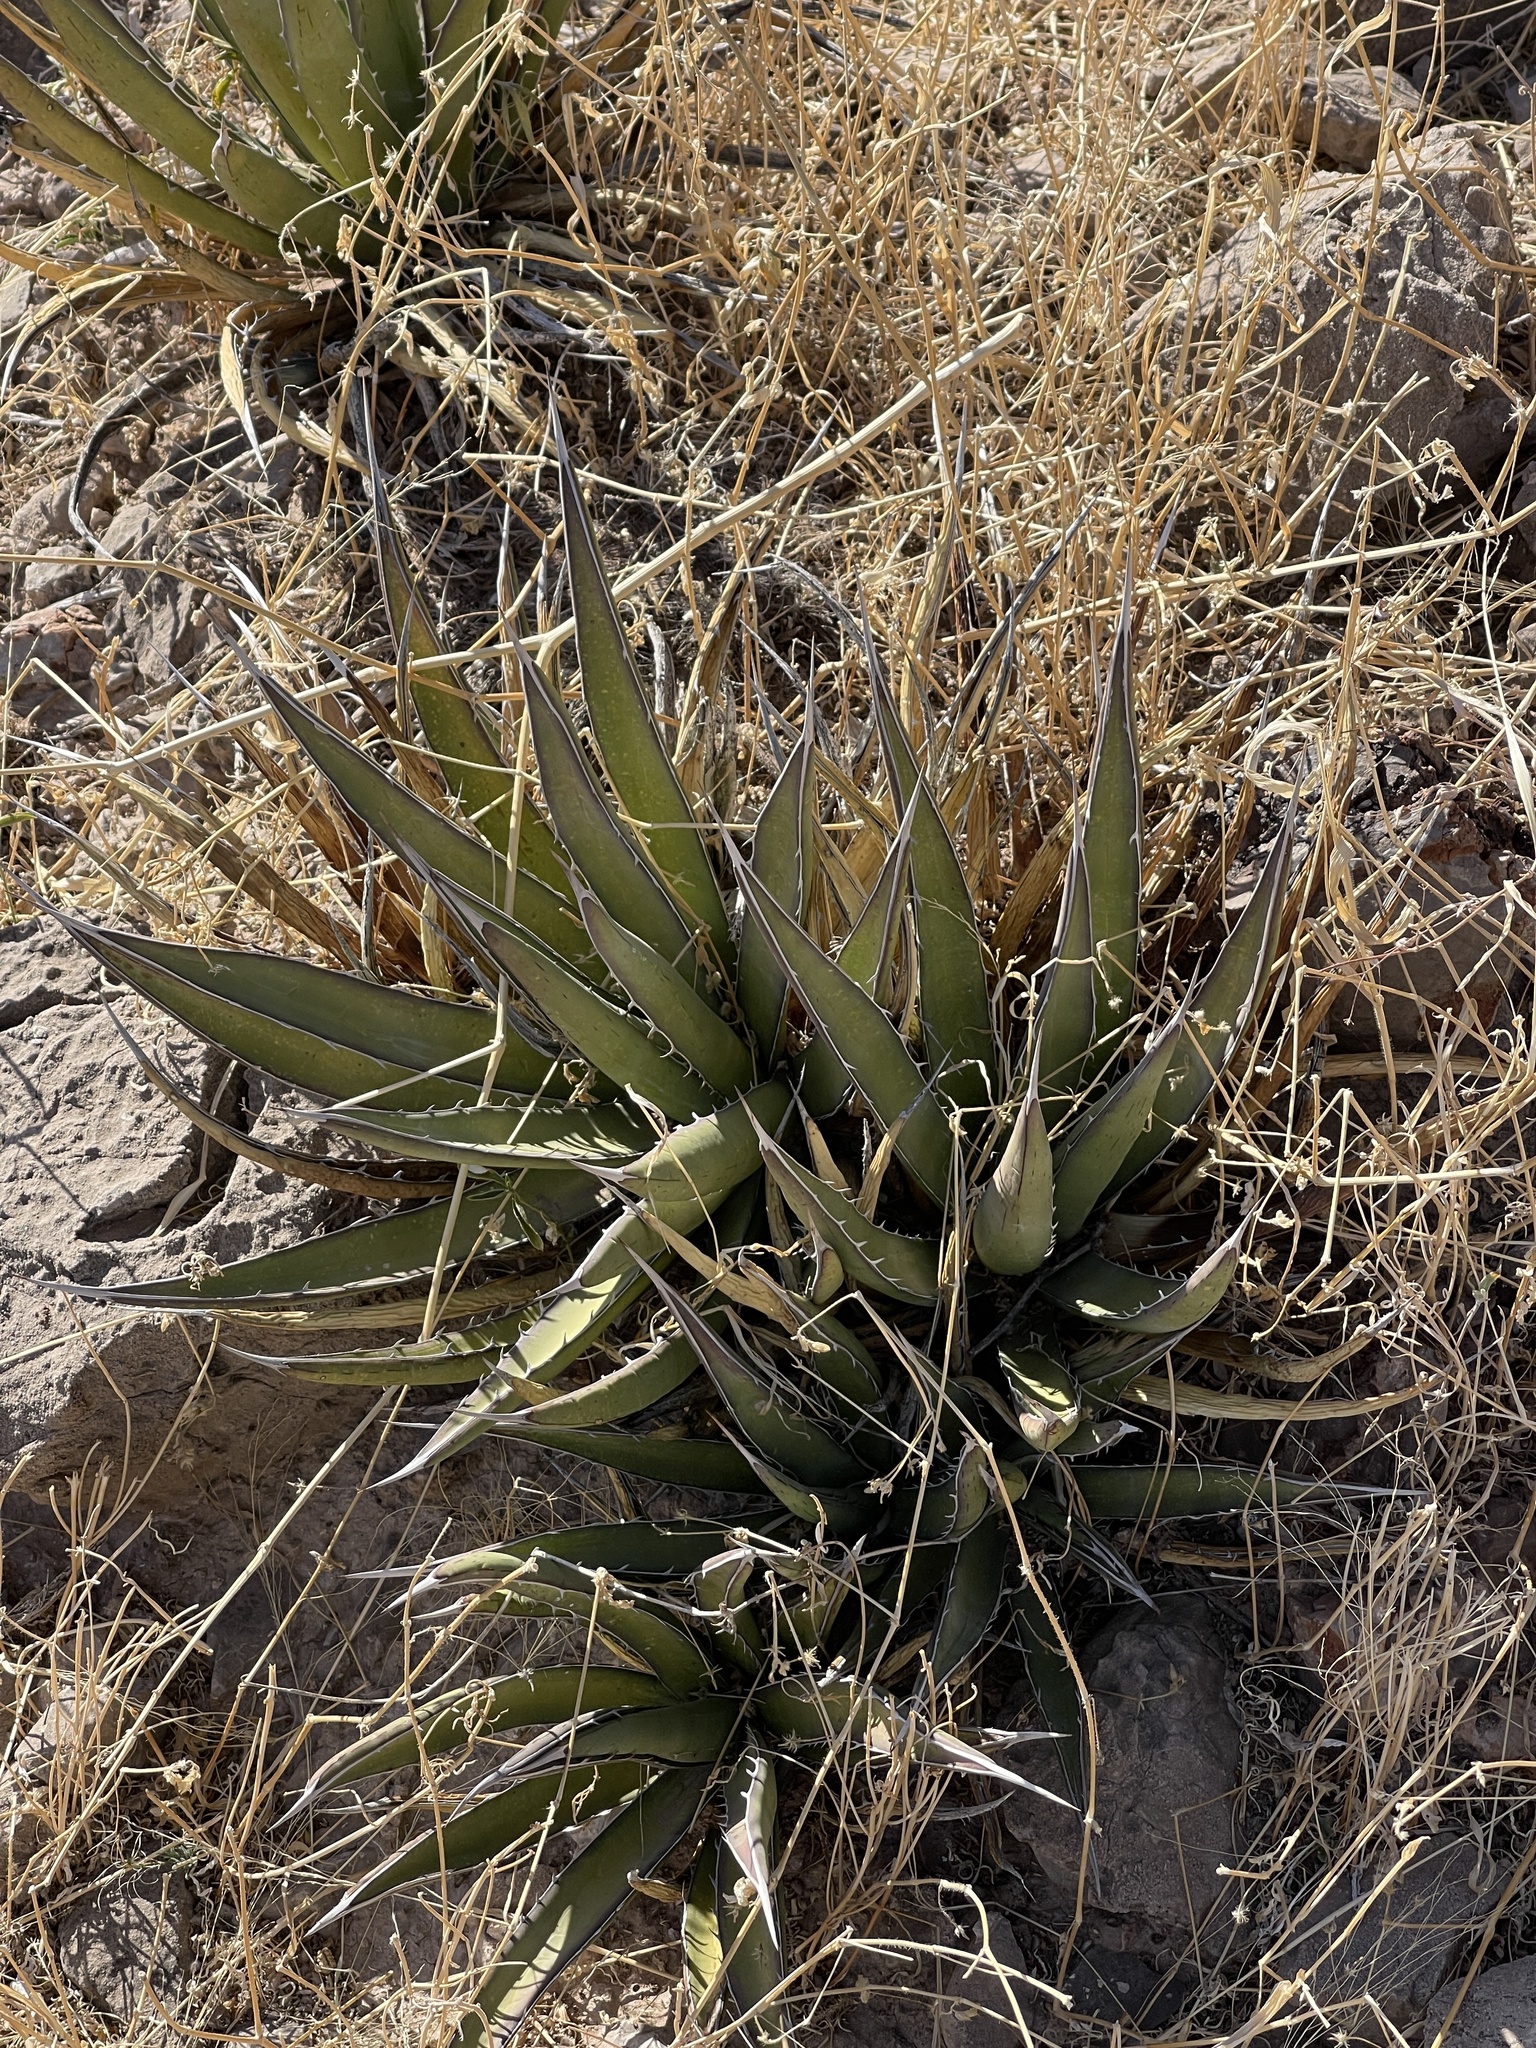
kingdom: Plantae
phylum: Tracheophyta
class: Liliopsida
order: Asparagales
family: Asparagaceae
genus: Agave
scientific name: Agave lechuguilla
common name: Lecheguilla agave
